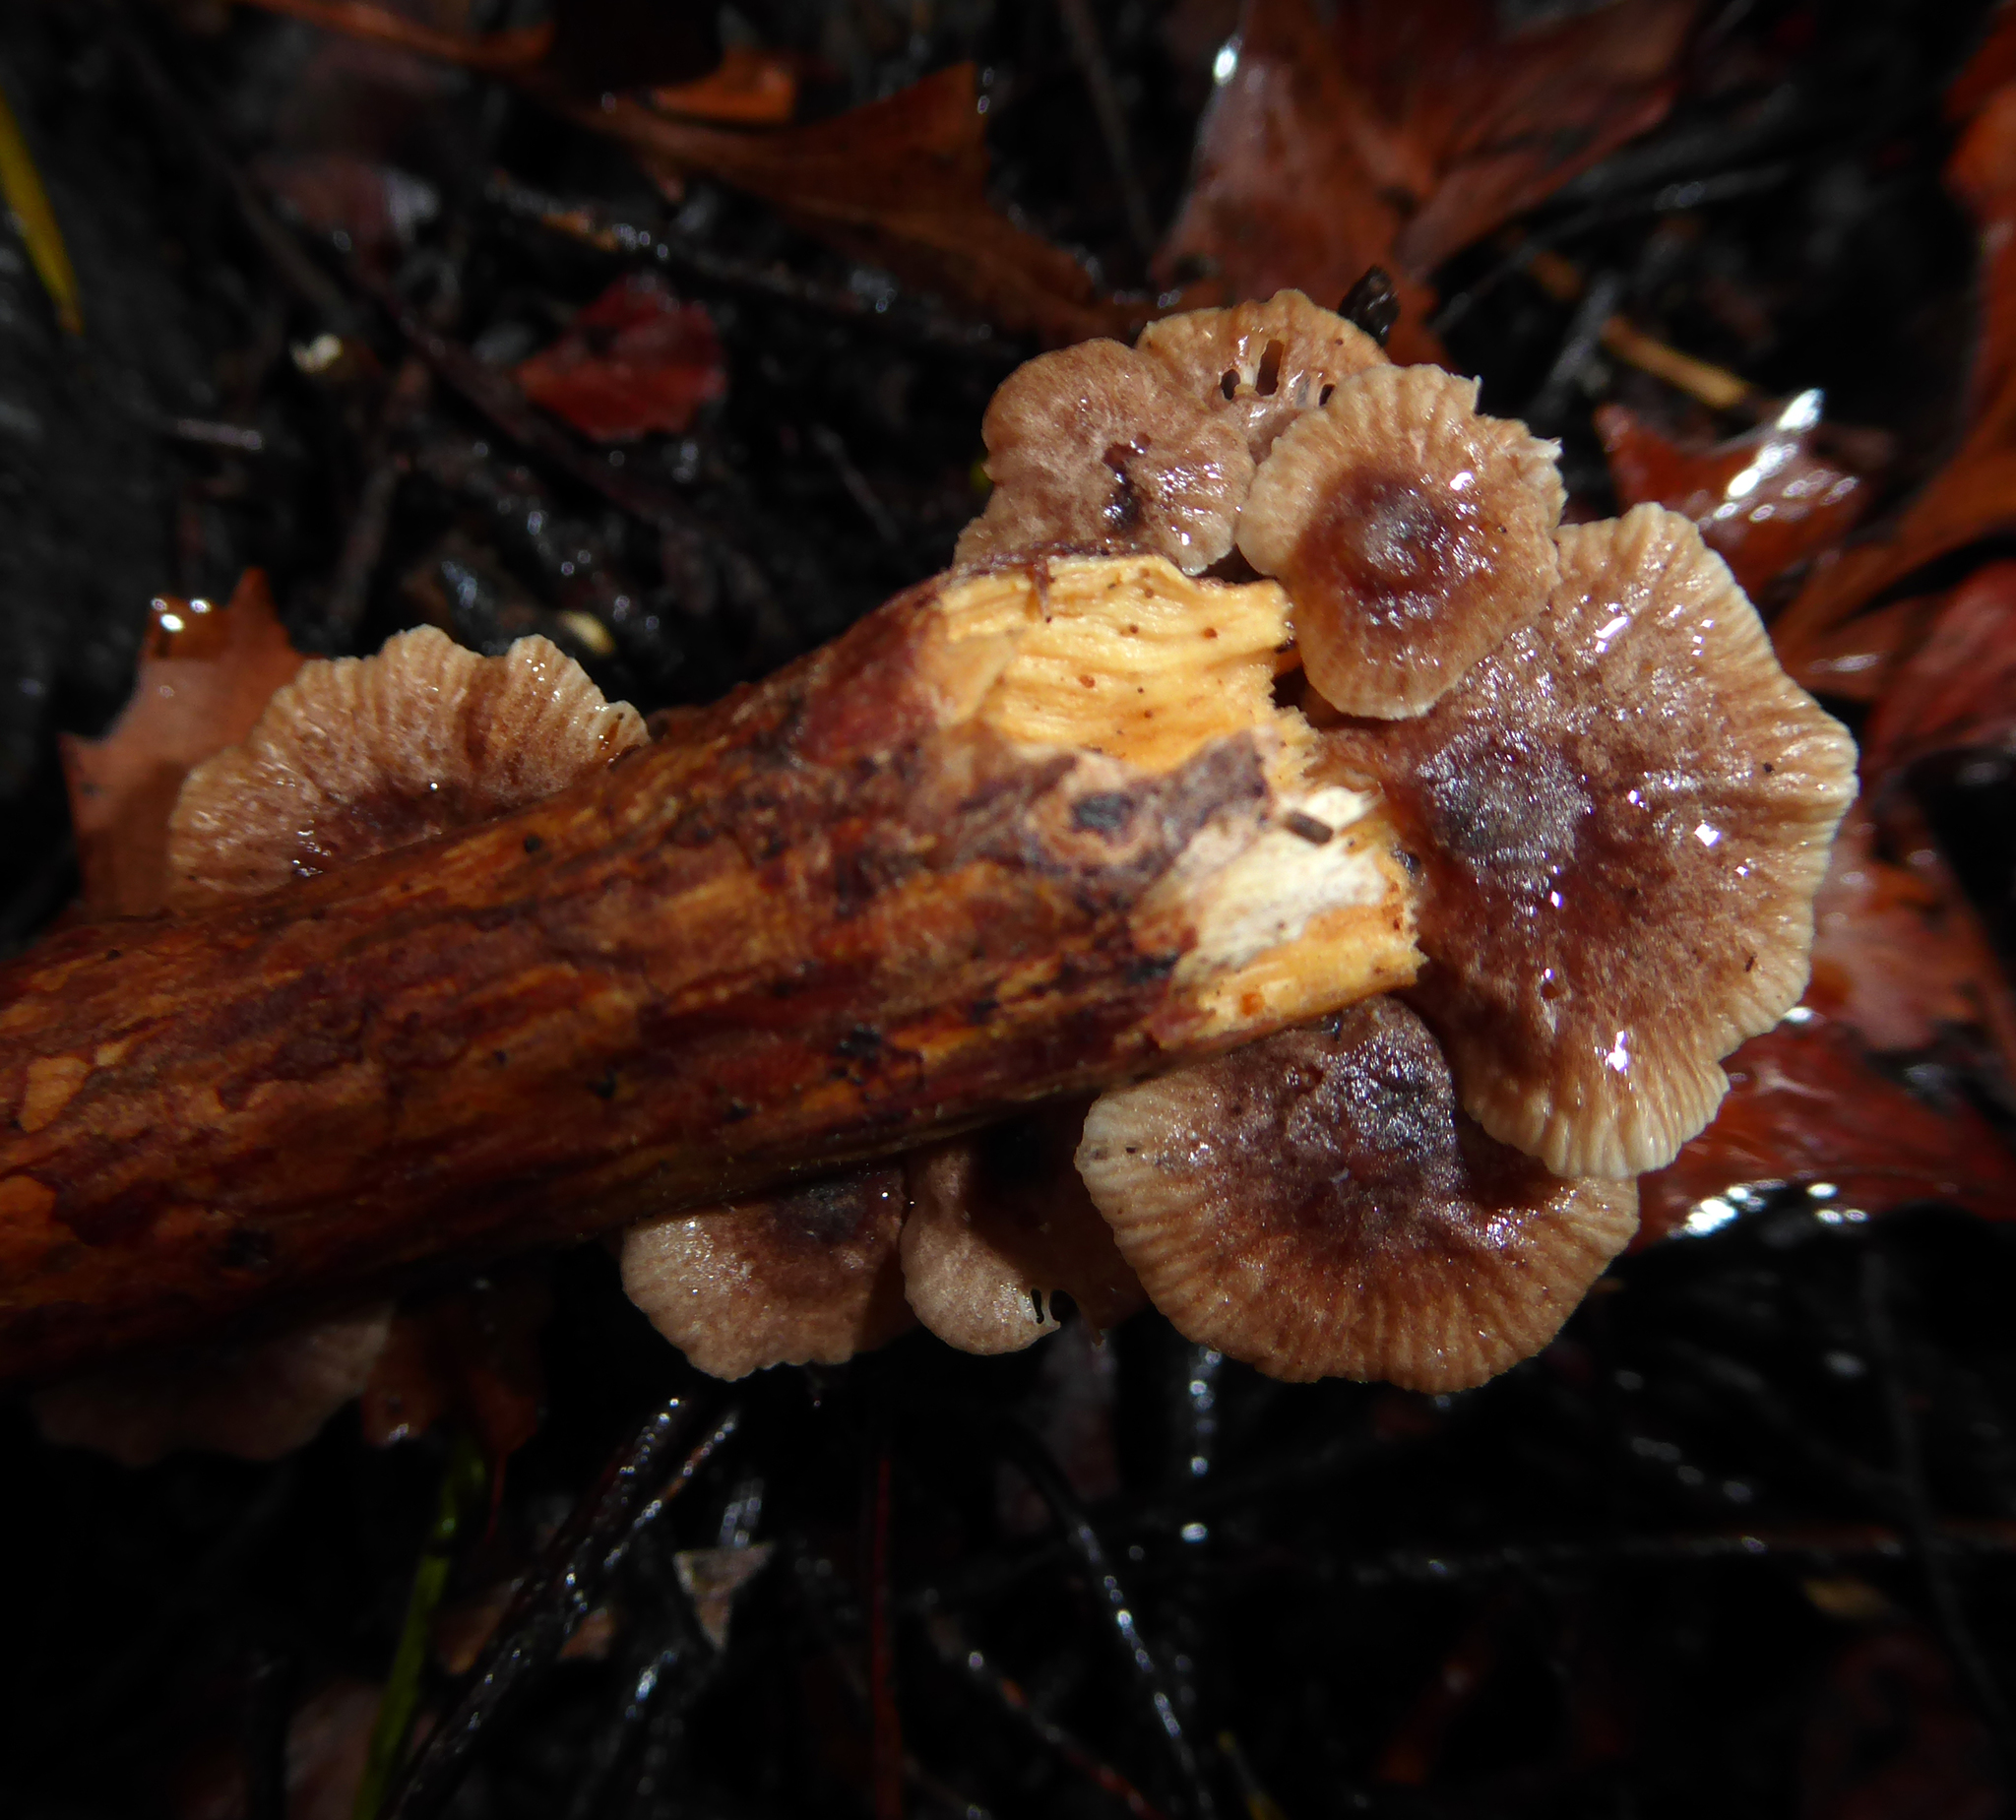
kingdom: Fungi
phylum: Basidiomycota
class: Agaricomycetes
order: Agaricales
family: Omphalotaceae
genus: Gymnopus
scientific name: Gymnopus imbricatus
